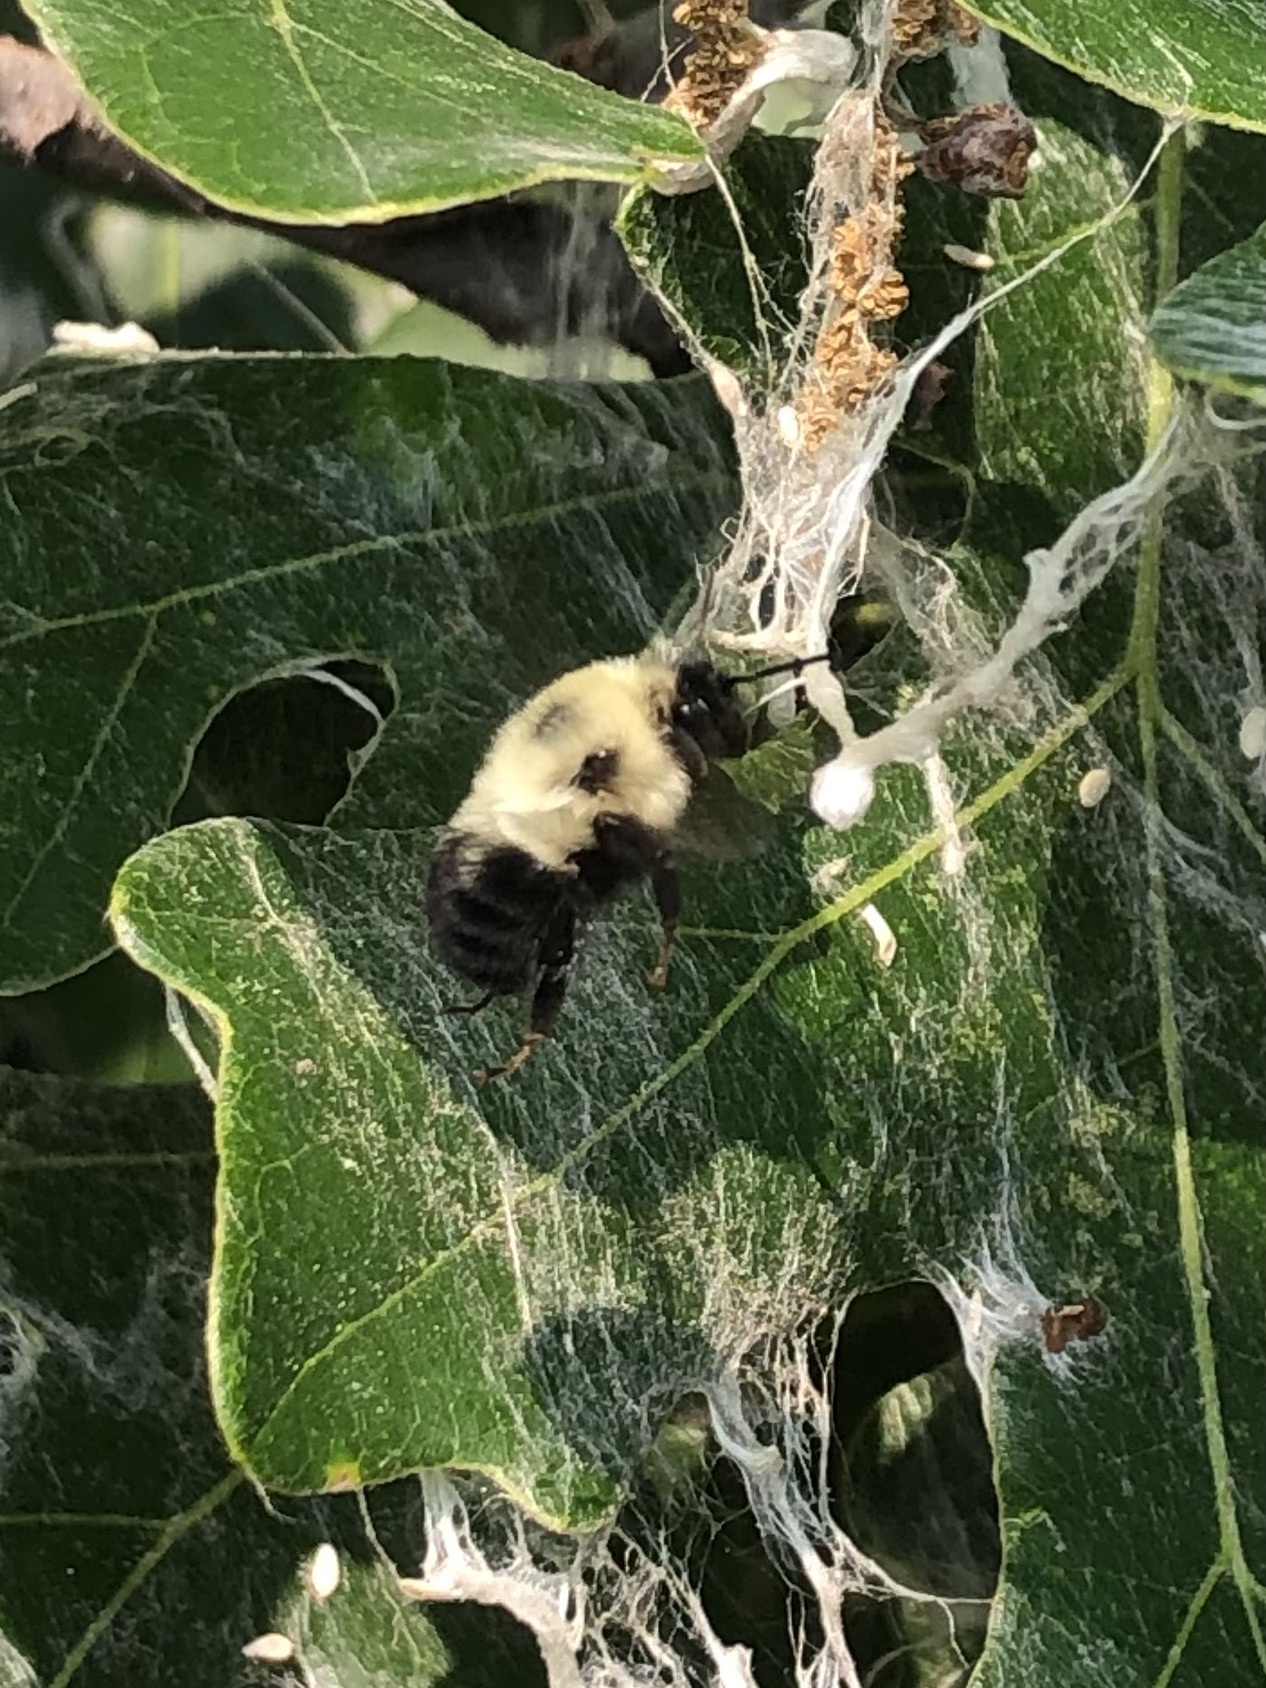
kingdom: Animalia
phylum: Arthropoda
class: Insecta
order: Hymenoptera
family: Apidae
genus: Bombus
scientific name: Bombus bimaculatus
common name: Two-spotted bumble bee
